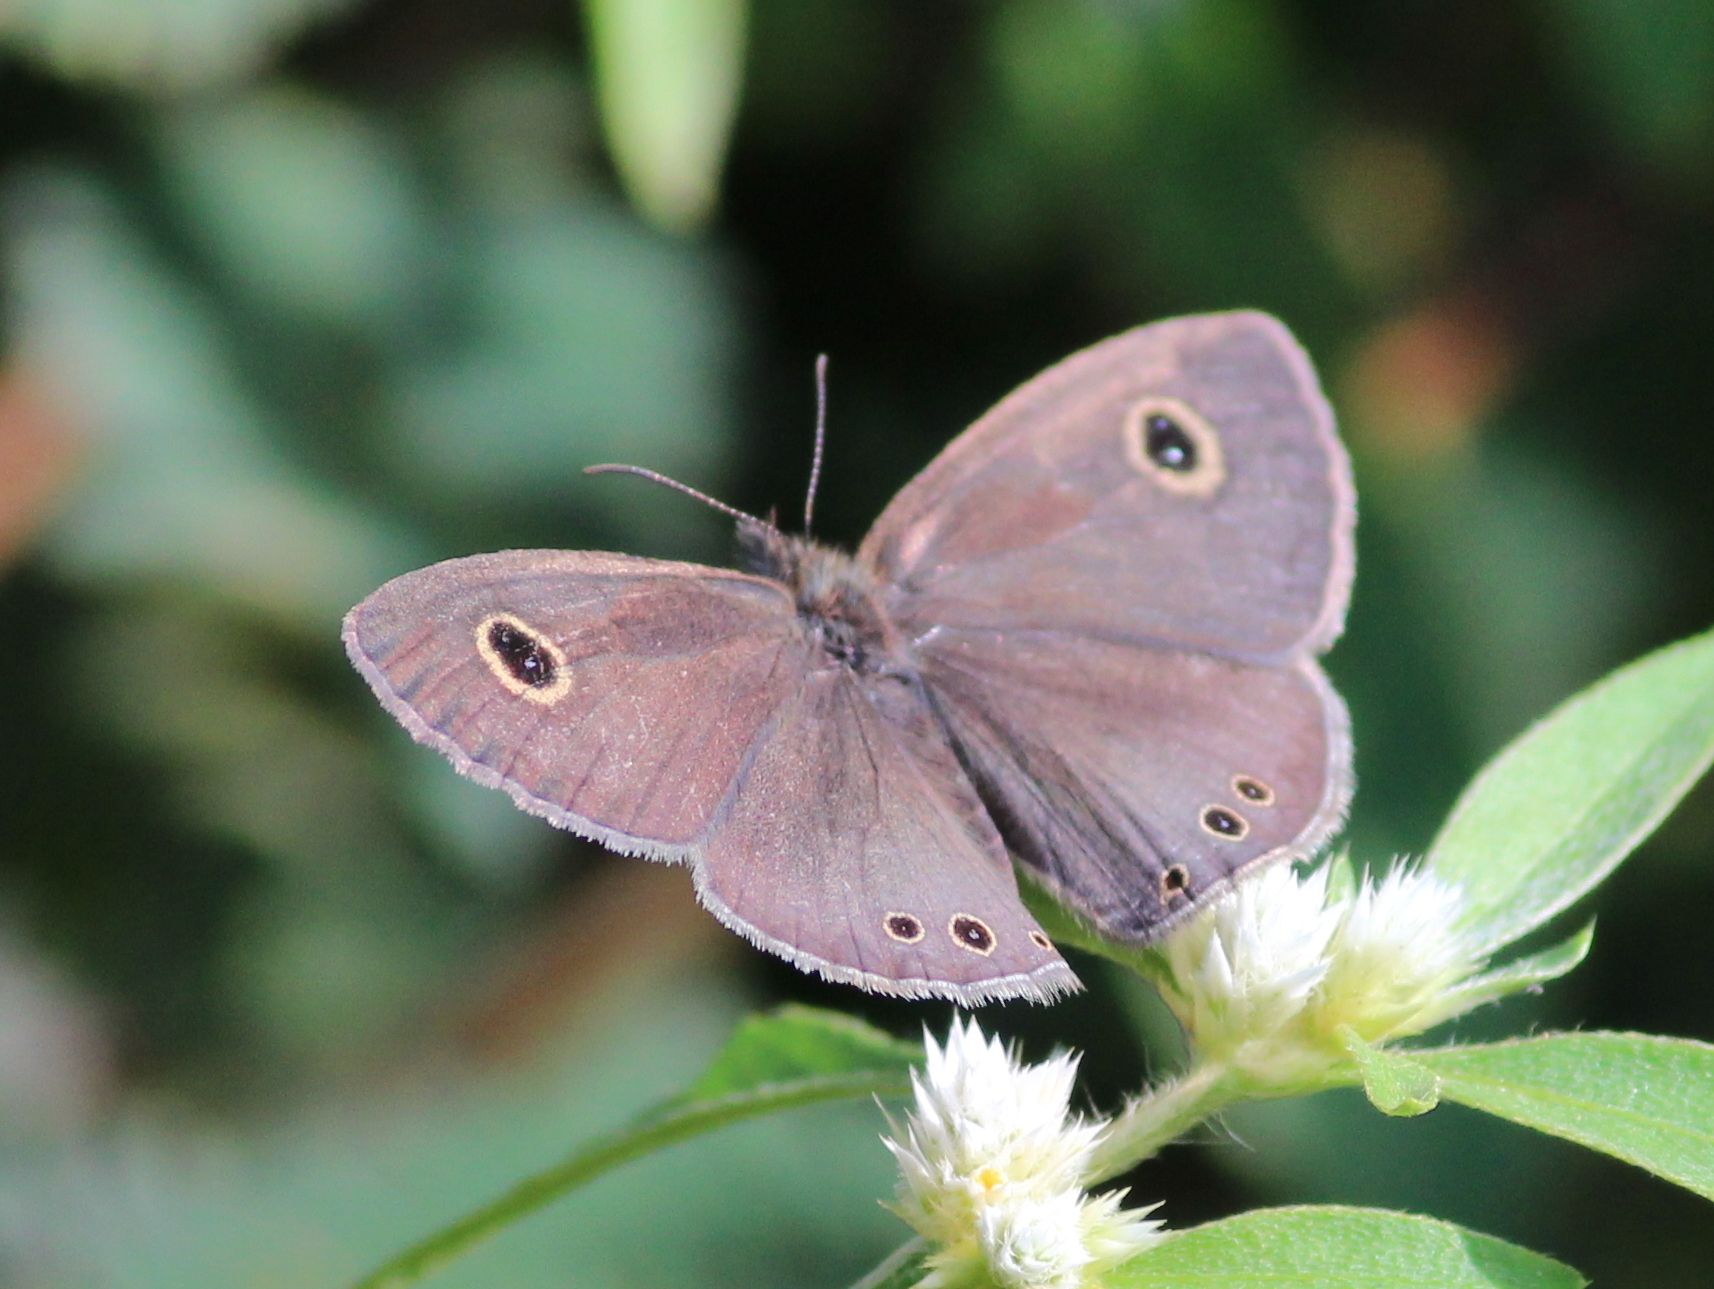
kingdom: Animalia
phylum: Arthropoda
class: Insecta
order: Lepidoptera
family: Nymphalidae
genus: Ypthima
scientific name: Ypthima huebneri
